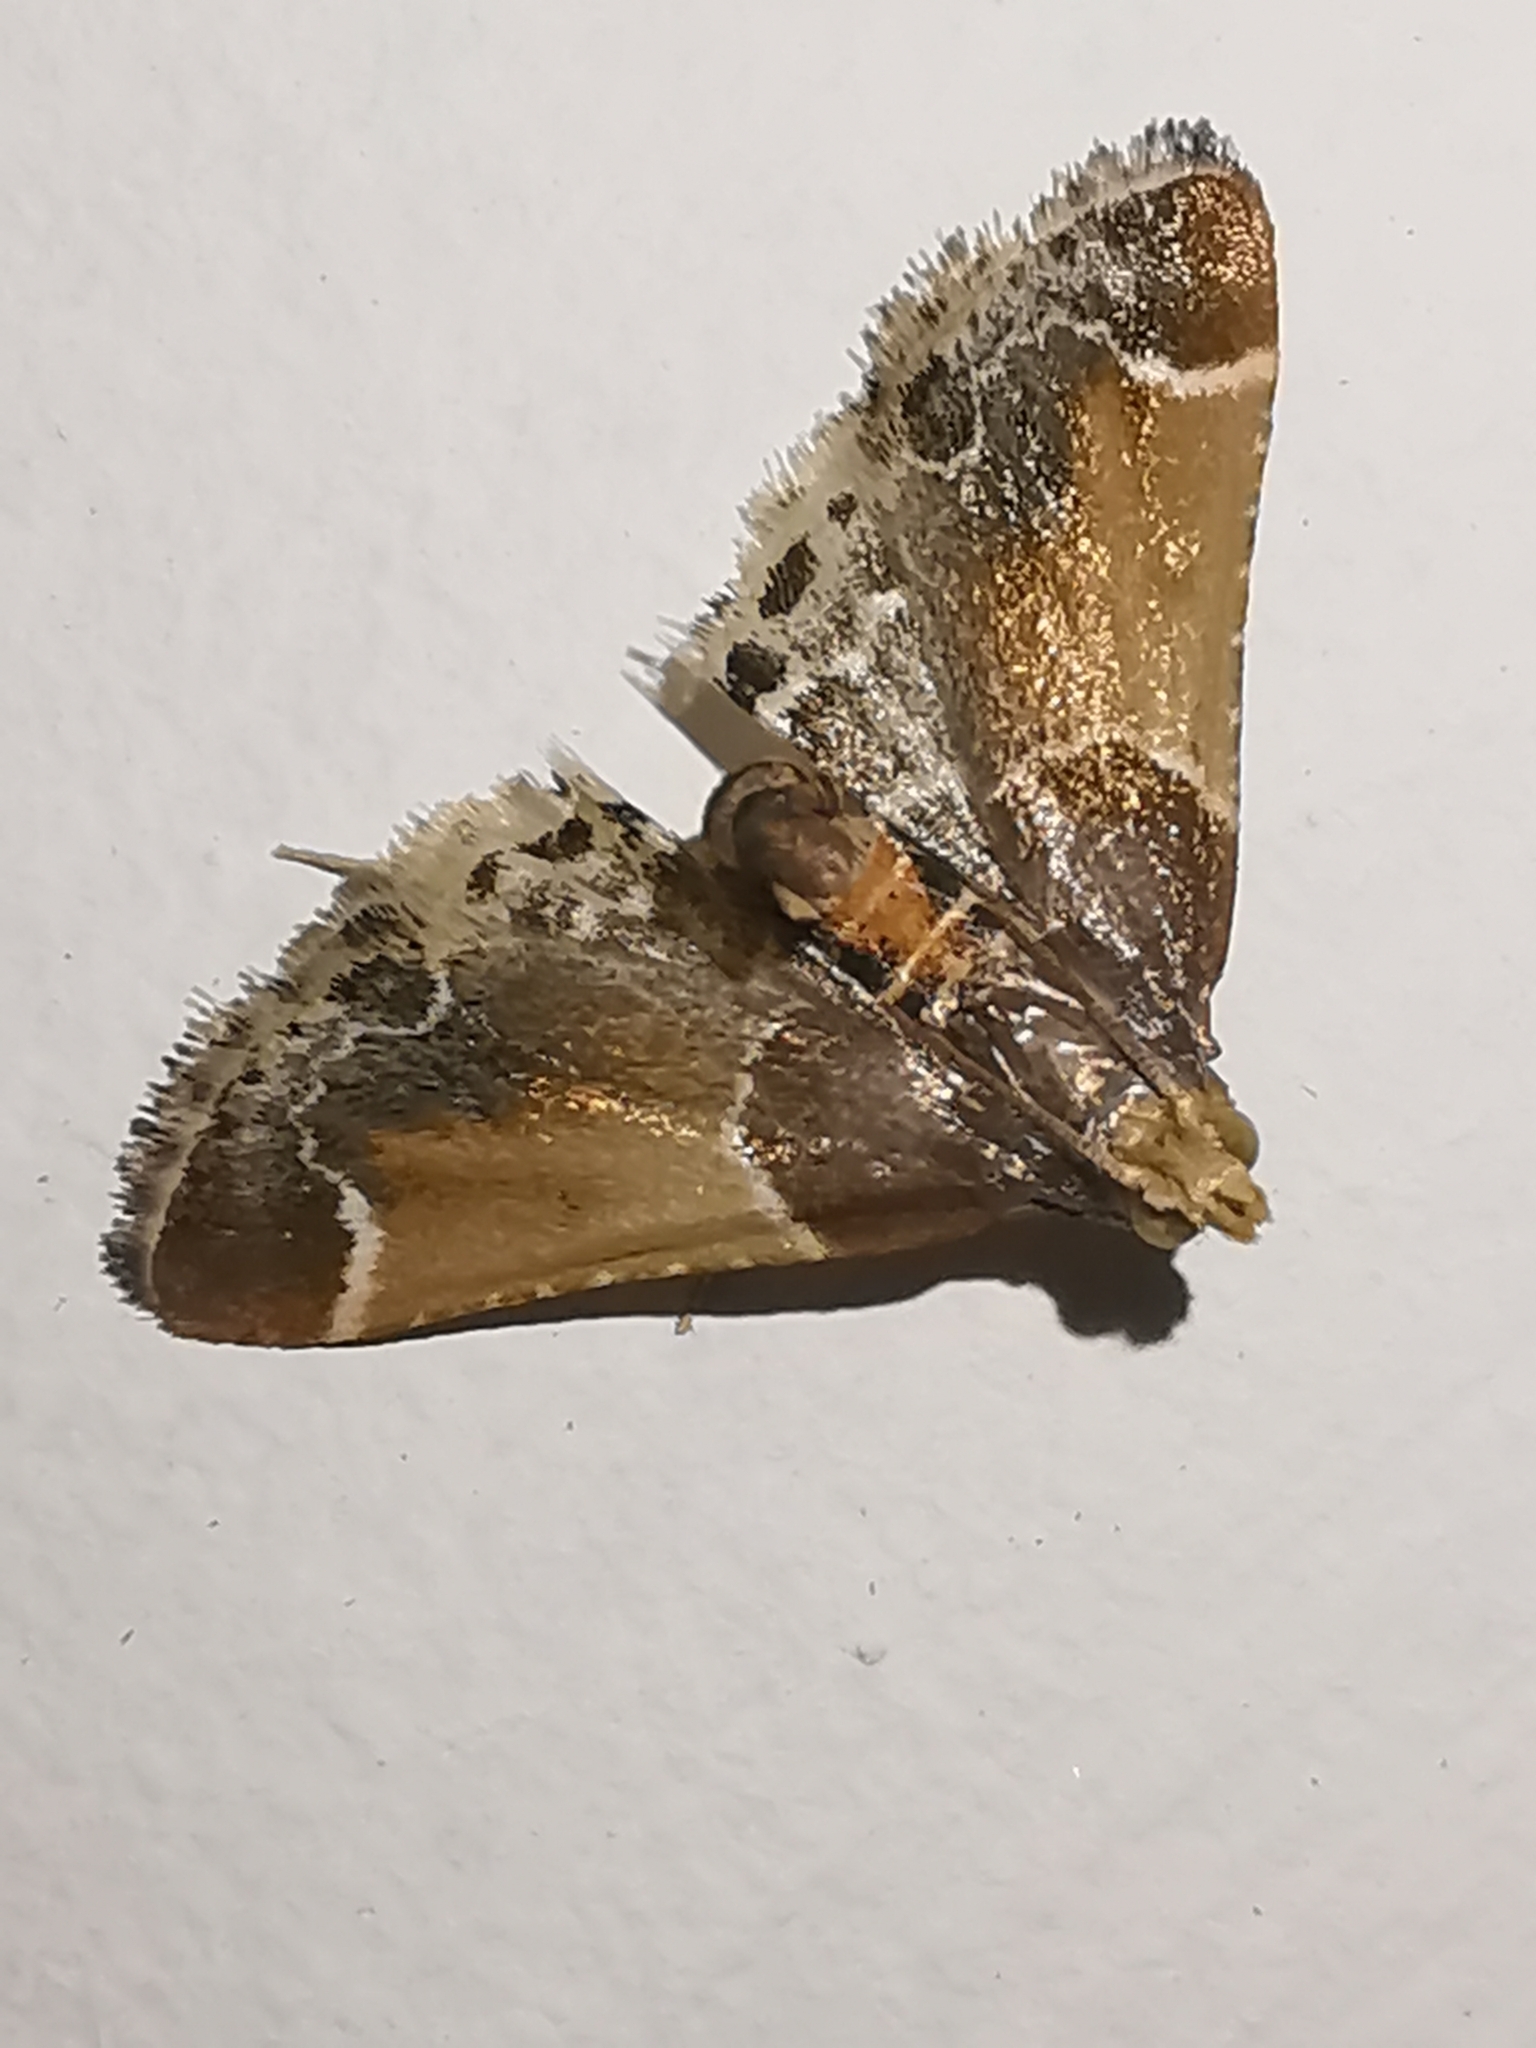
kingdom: Animalia
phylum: Arthropoda
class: Insecta
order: Lepidoptera
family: Pyralidae
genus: Pyralis
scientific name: Pyralis farinalis
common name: Meal moth
